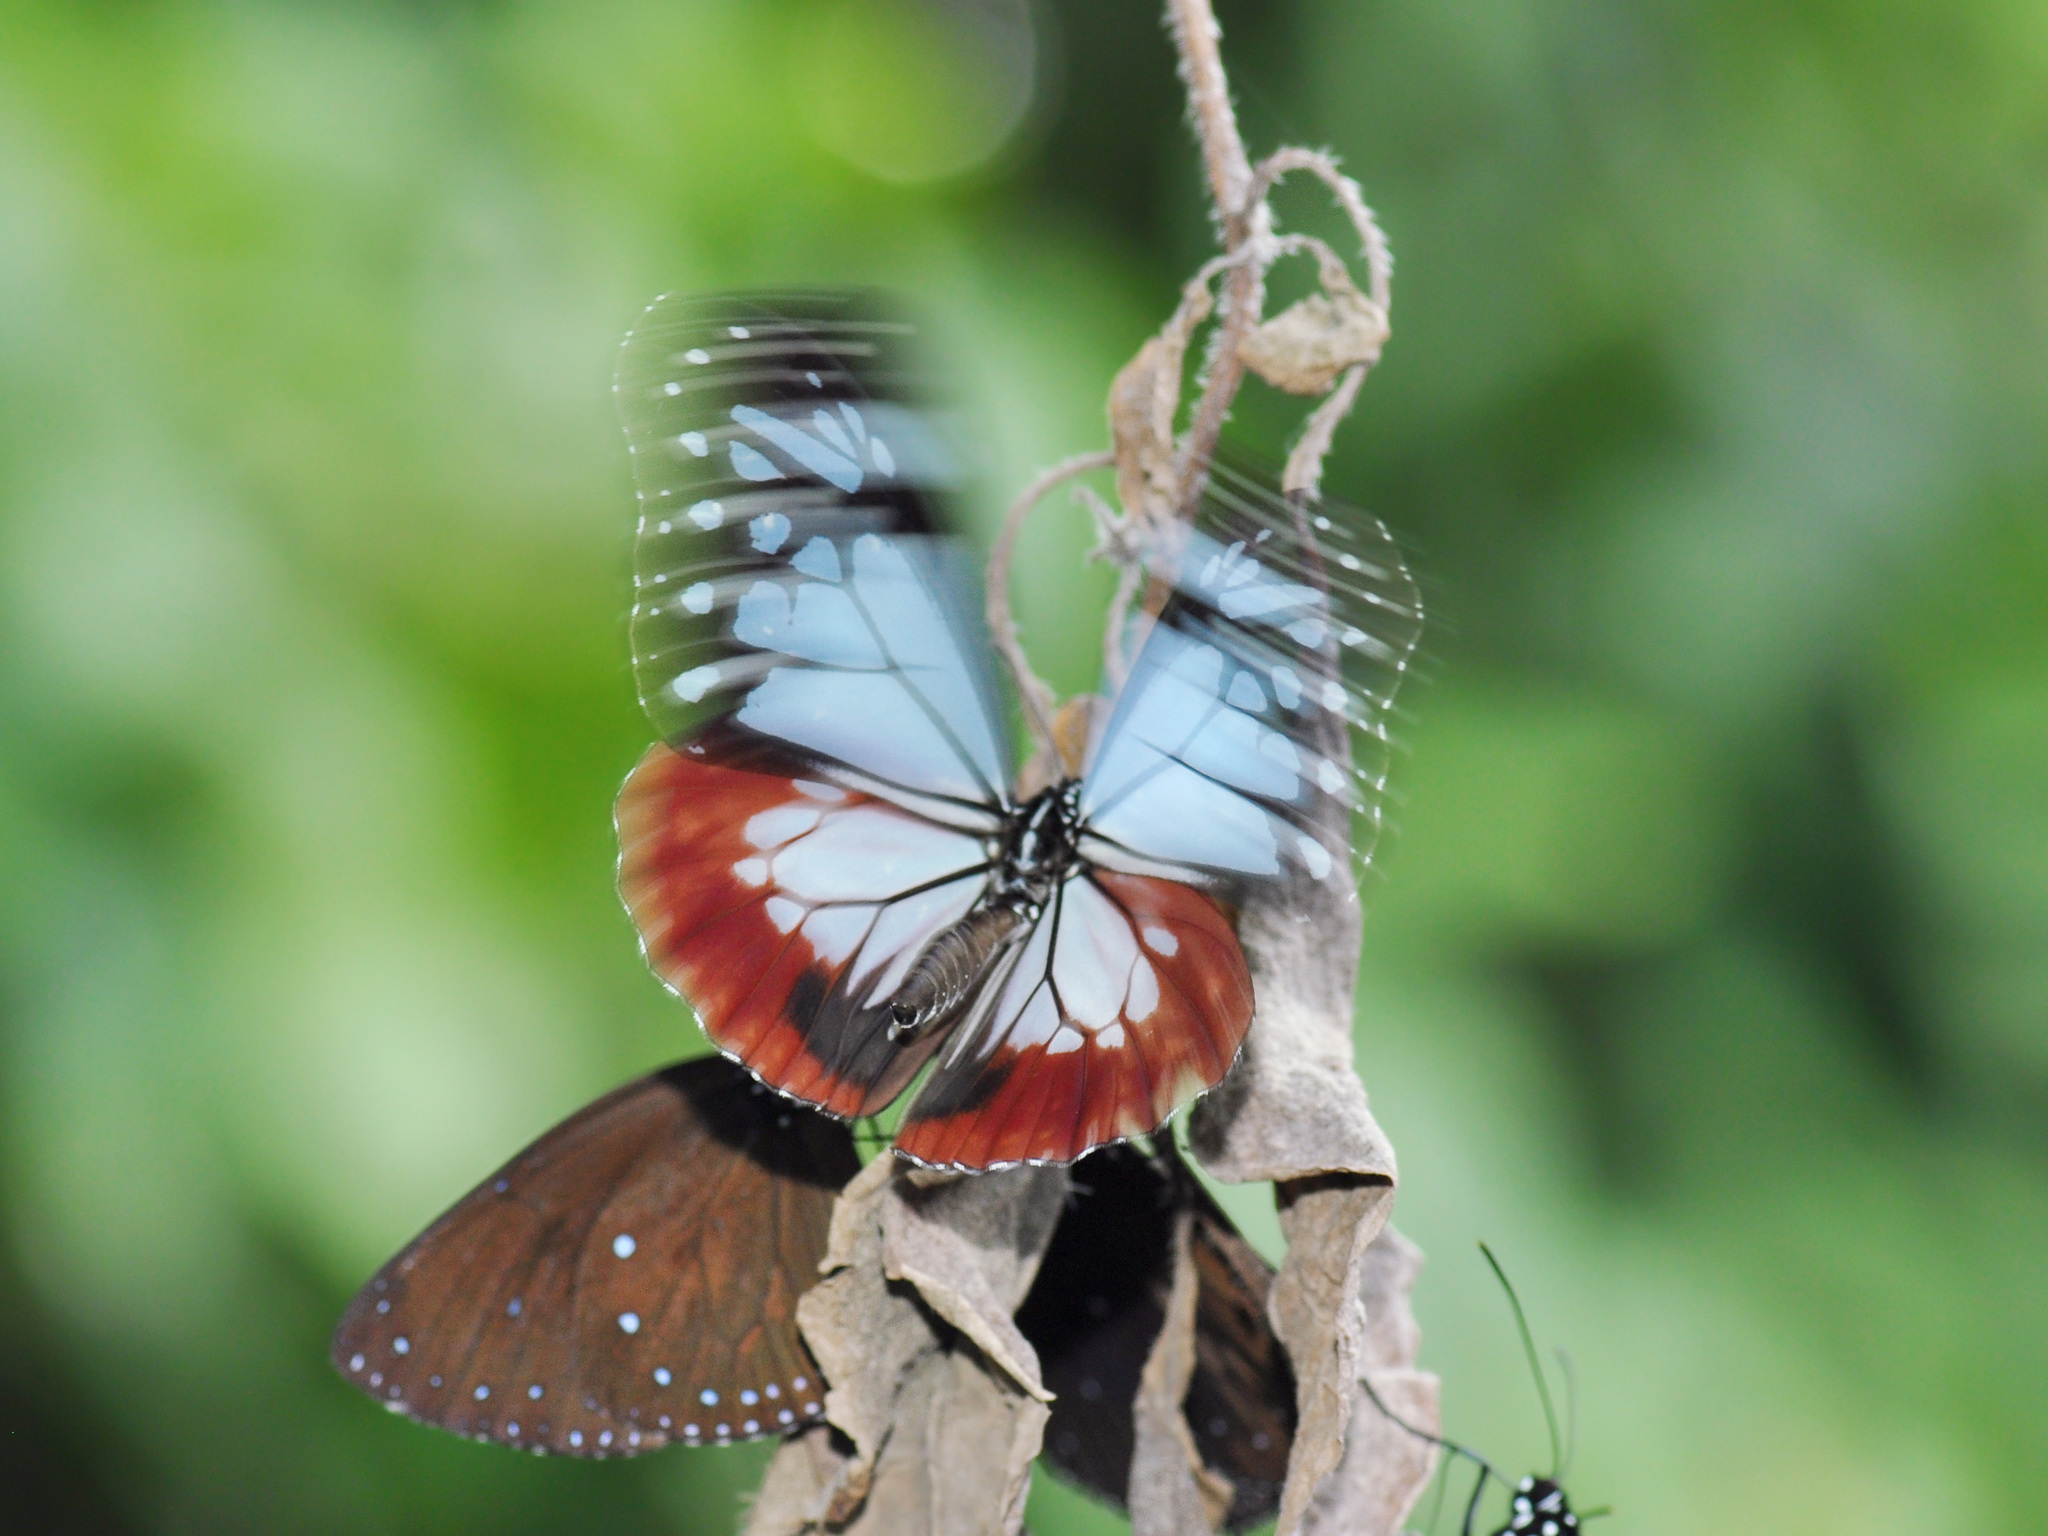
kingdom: Animalia
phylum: Arthropoda
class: Insecta
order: Lepidoptera
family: Nymphalidae
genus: Parantica
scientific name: Parantica sita
